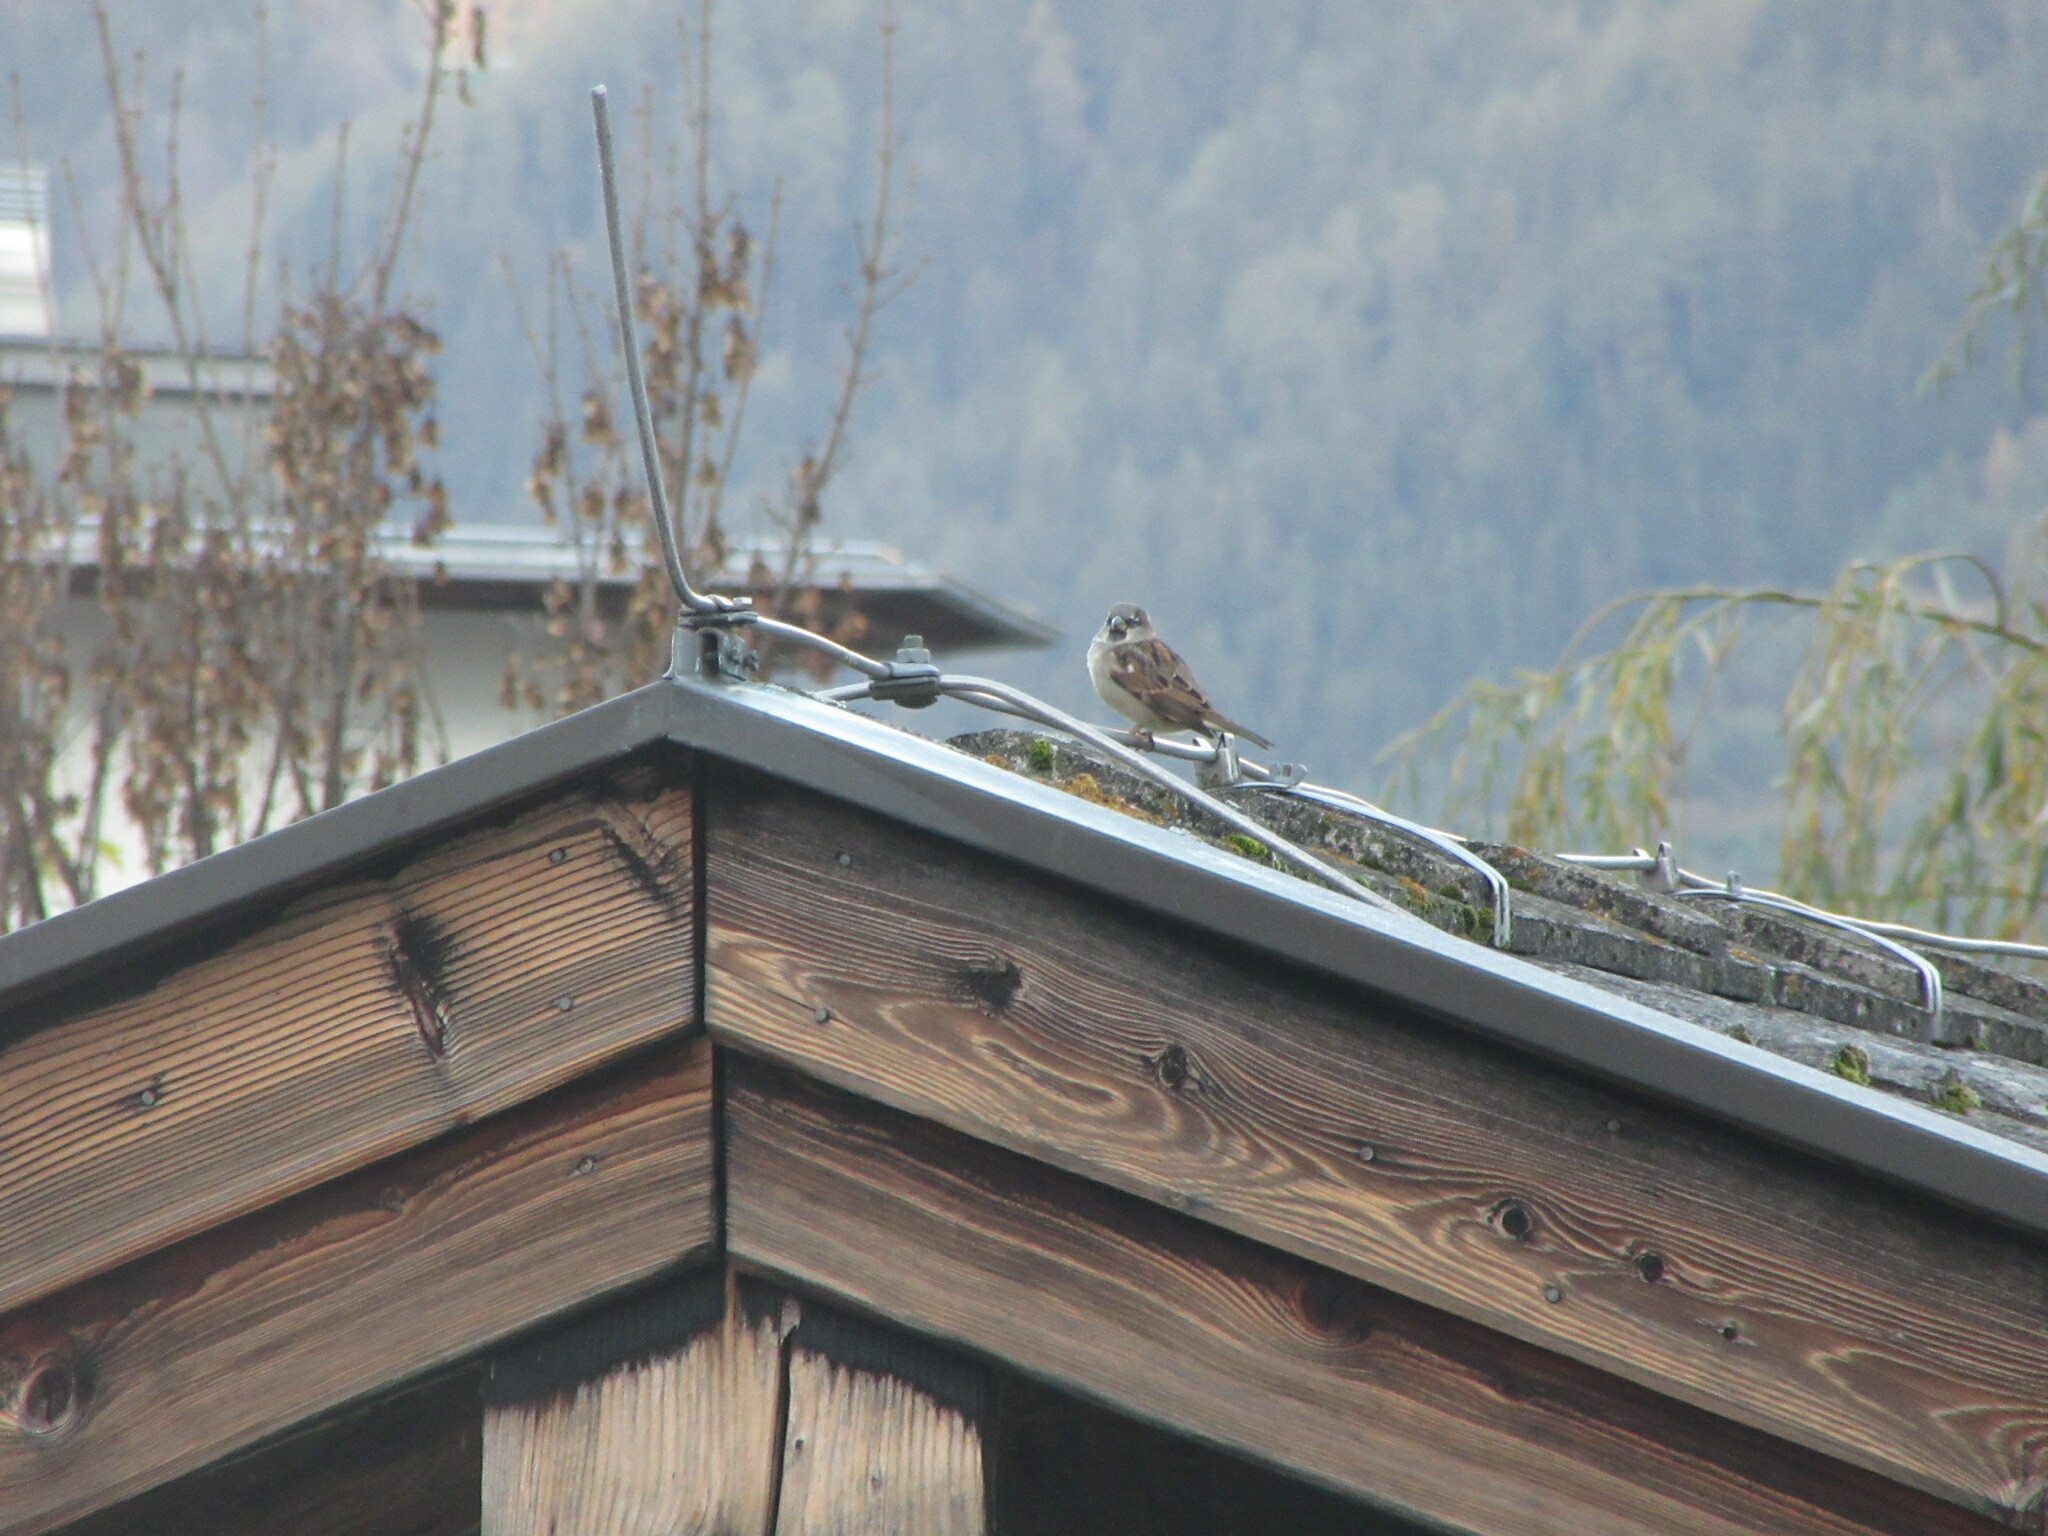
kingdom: Animalia
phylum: Chordata
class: Aves
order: Passeriformes
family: Passeridae
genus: Passer
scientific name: Passer domesticus
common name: House sparrow
